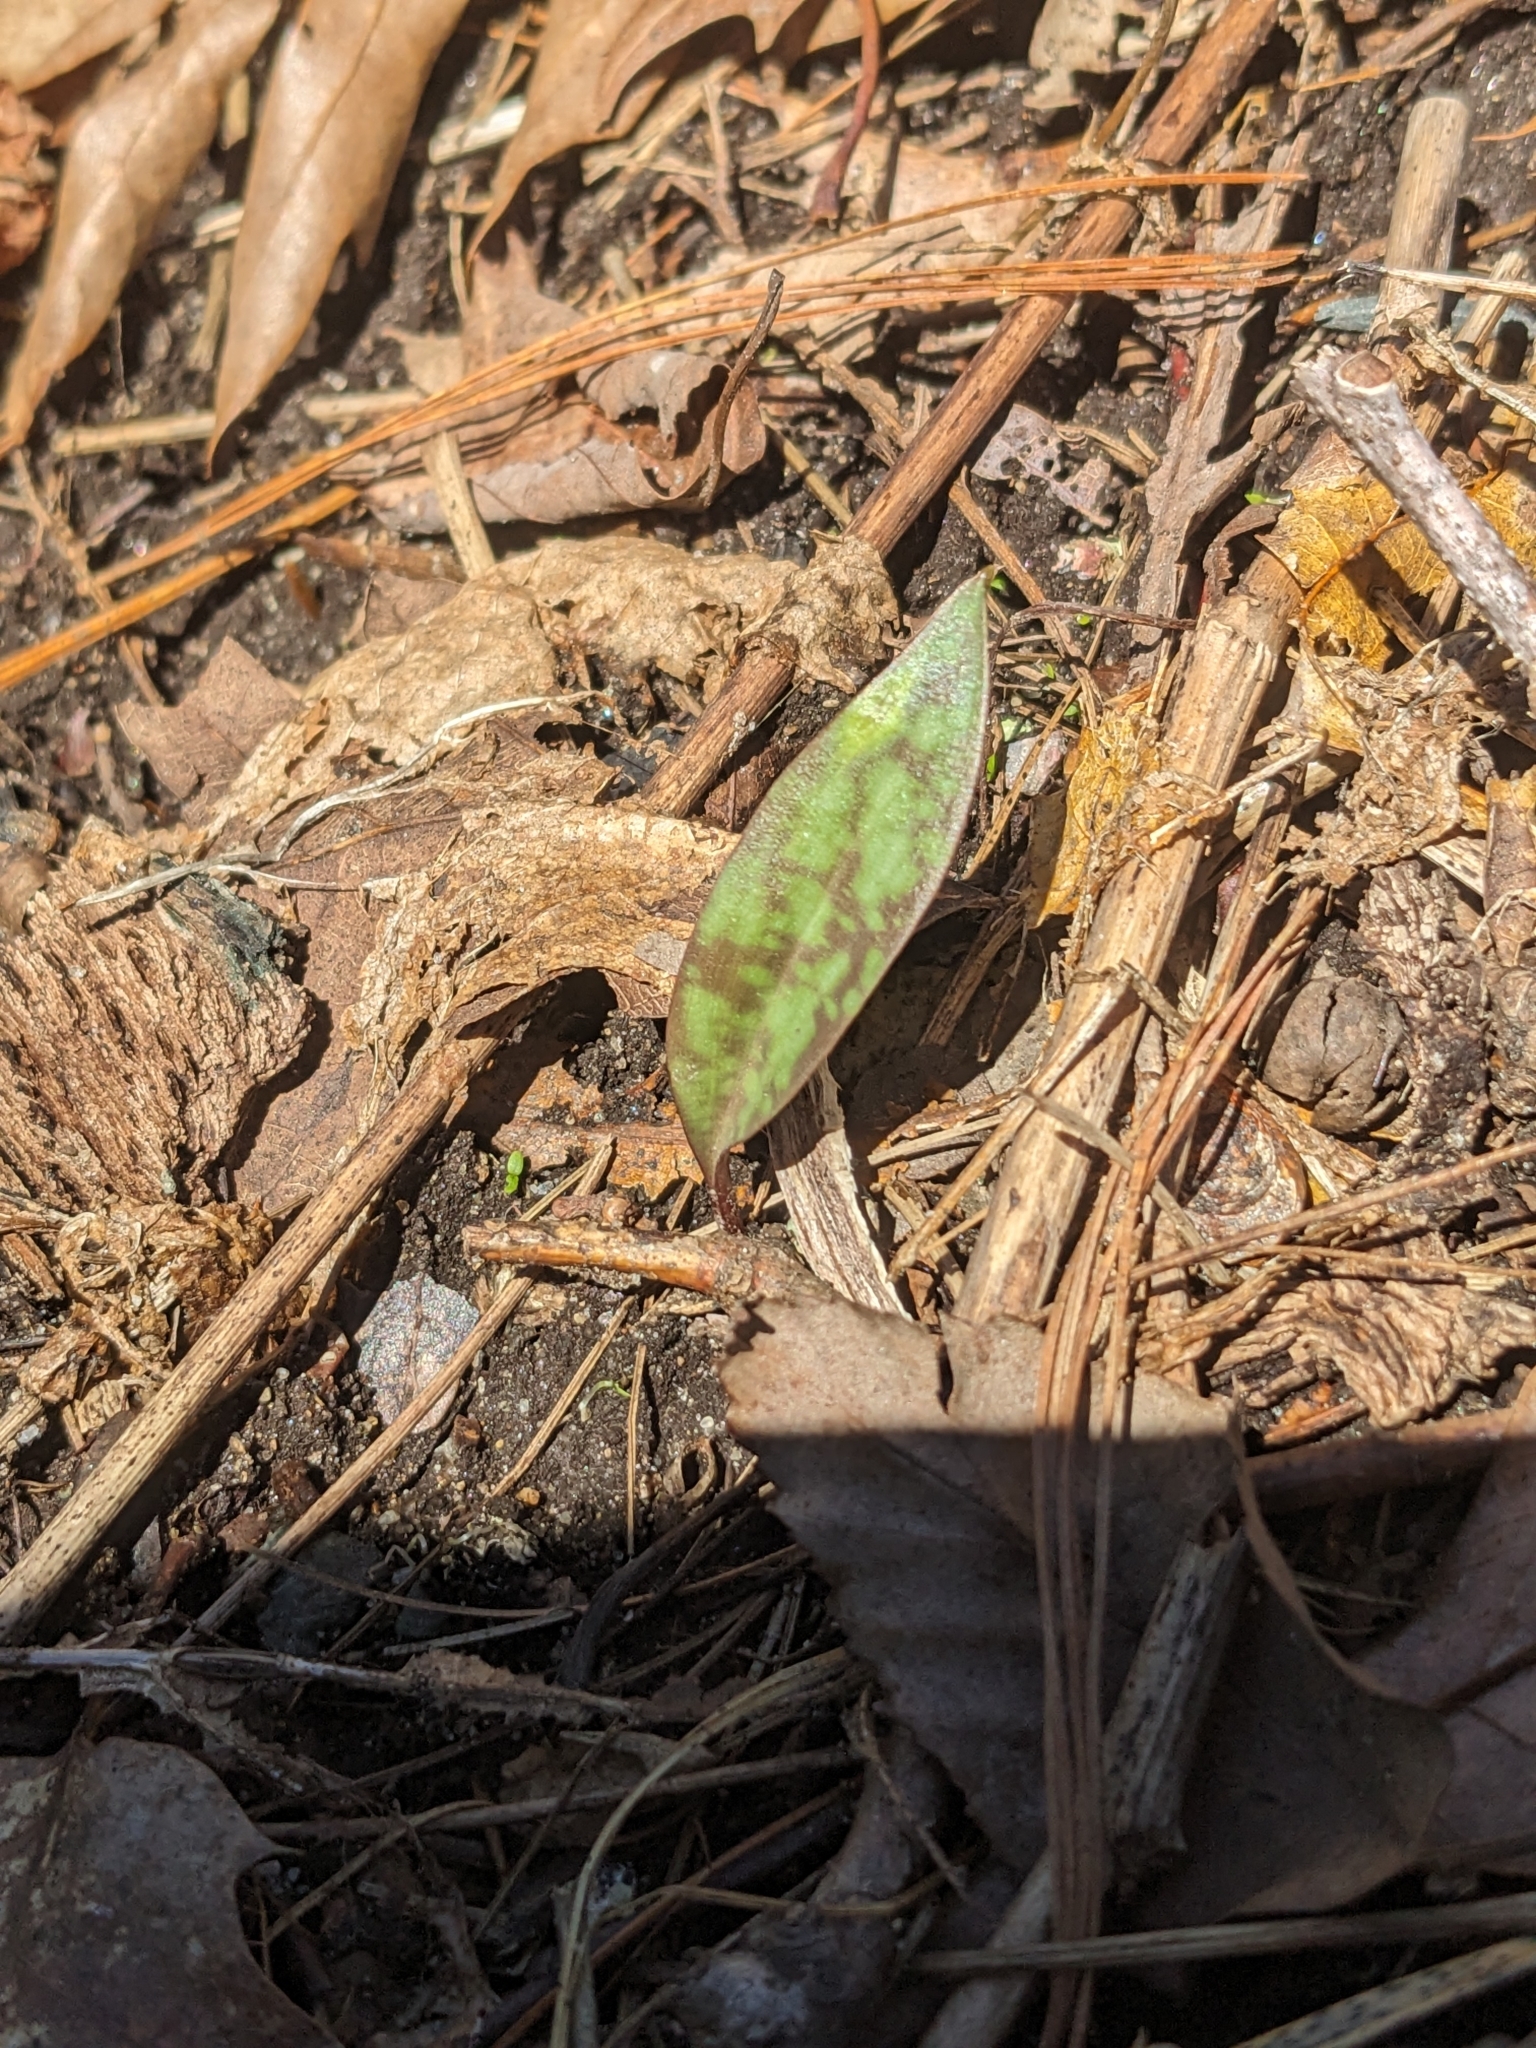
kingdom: Plantae
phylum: Tracheophyta
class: Liliopsida
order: Liliales
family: Liliaceae
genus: Erythronium
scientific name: Erythronium americanum
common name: Yellow adder's-tongue
